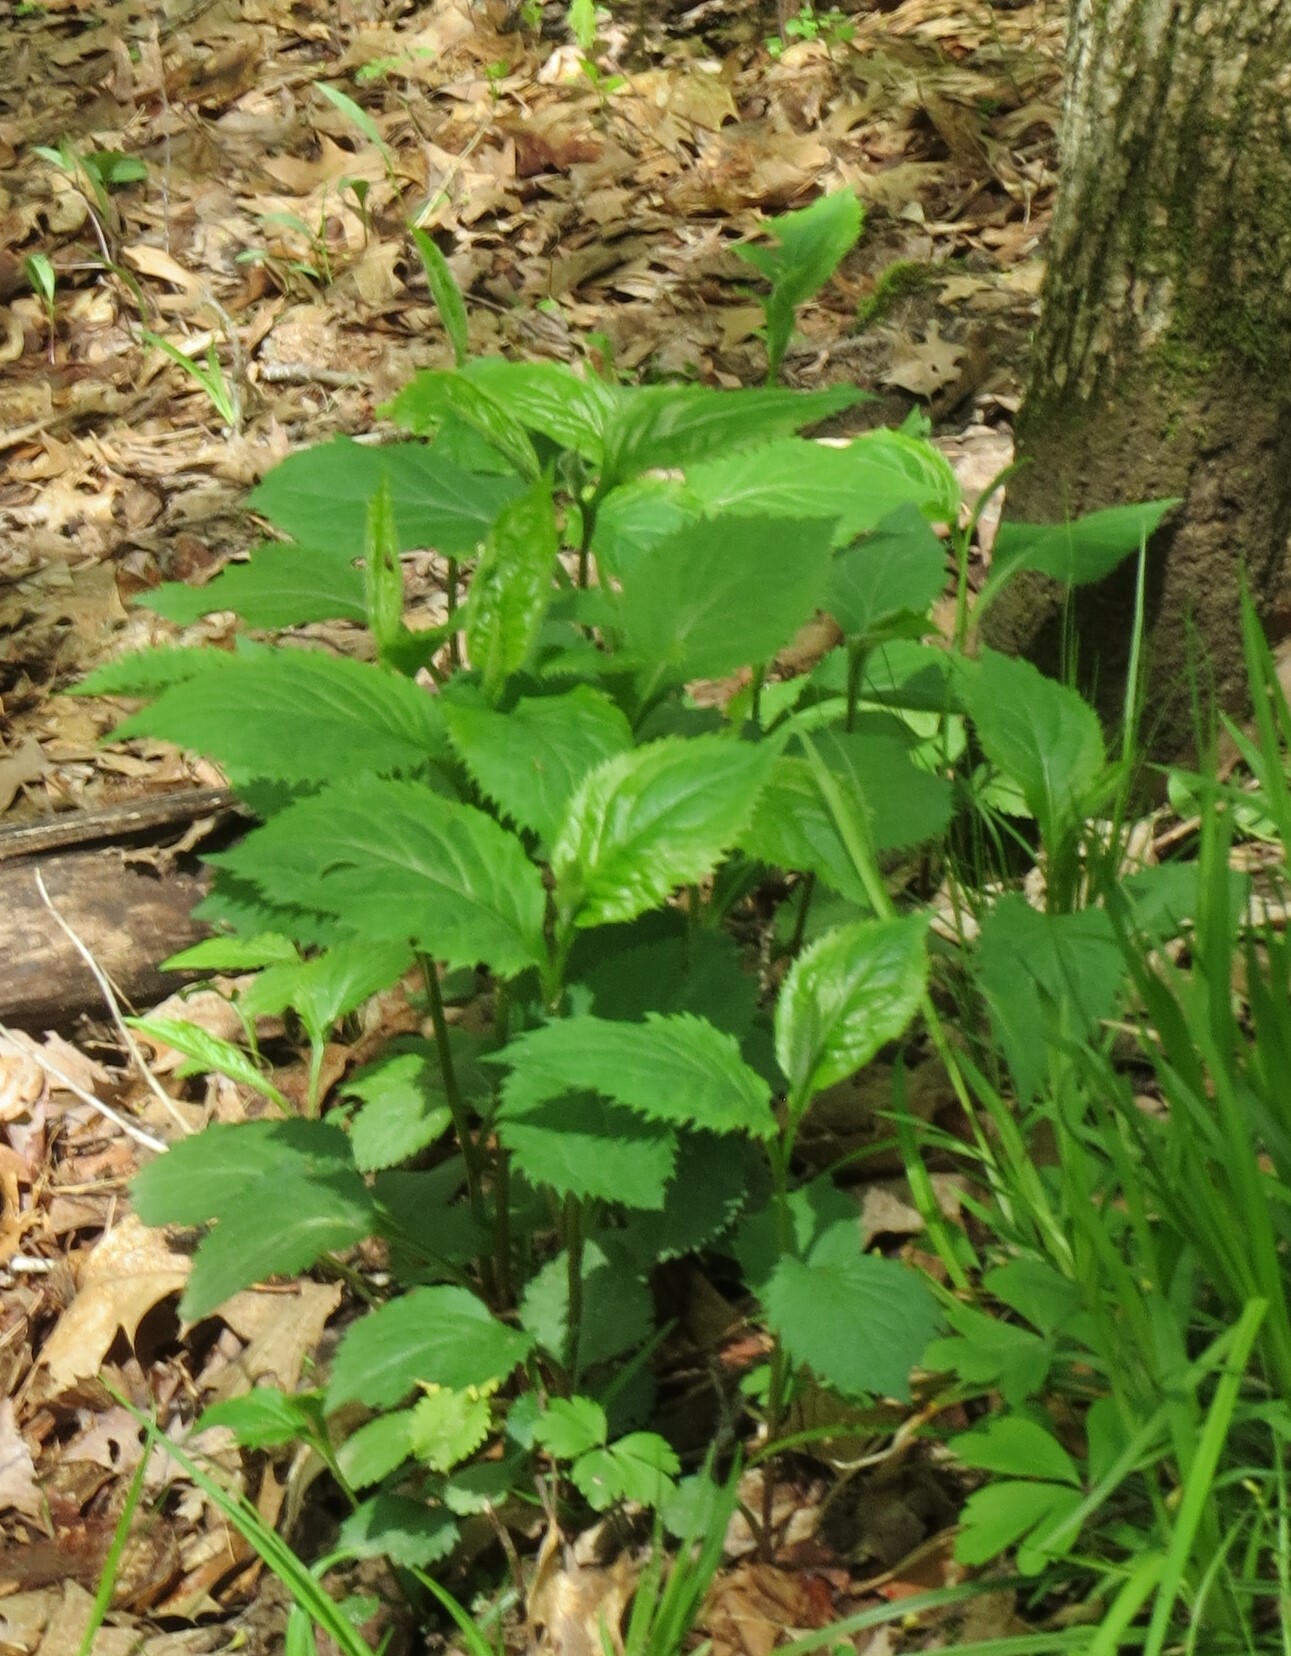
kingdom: Plantae
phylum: Tracheophyta
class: Magnoliopsida
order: Asterales
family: Asteraceae
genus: Solidago
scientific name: Solidago flexicaulis
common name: Zig-zag goldenrod
